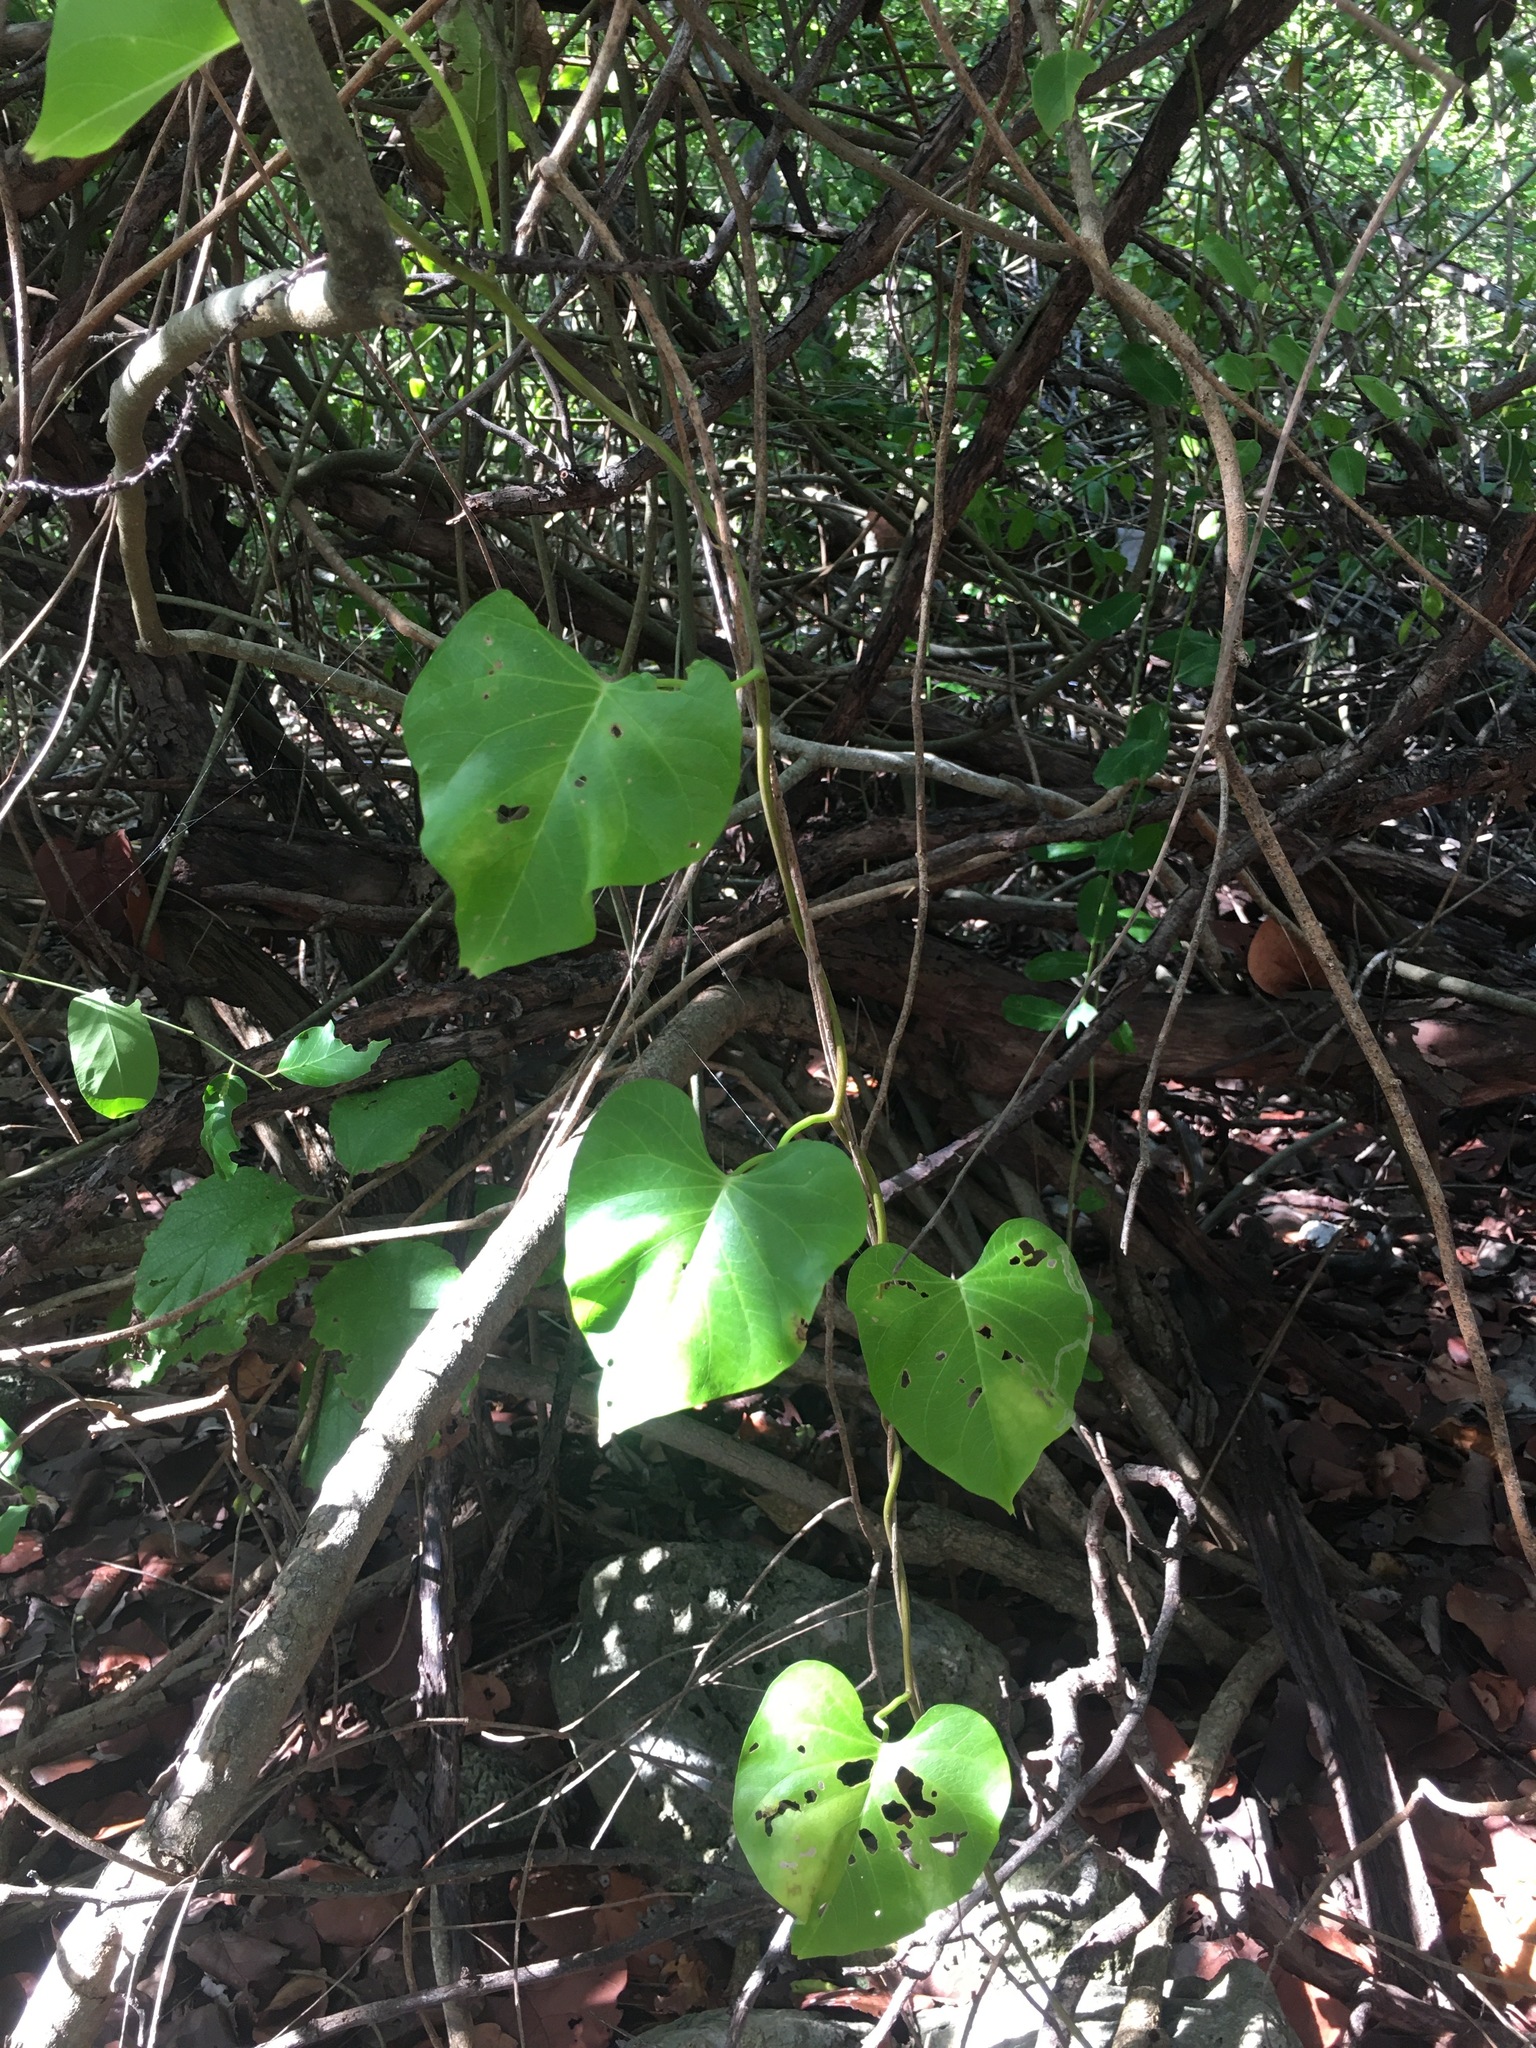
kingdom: Plantae
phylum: Tracheophyta
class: Magnoliopsida
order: Solanales
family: Convolvulaceae
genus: Ipomoea
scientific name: Ipomoea violacea
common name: Beach moonflower
